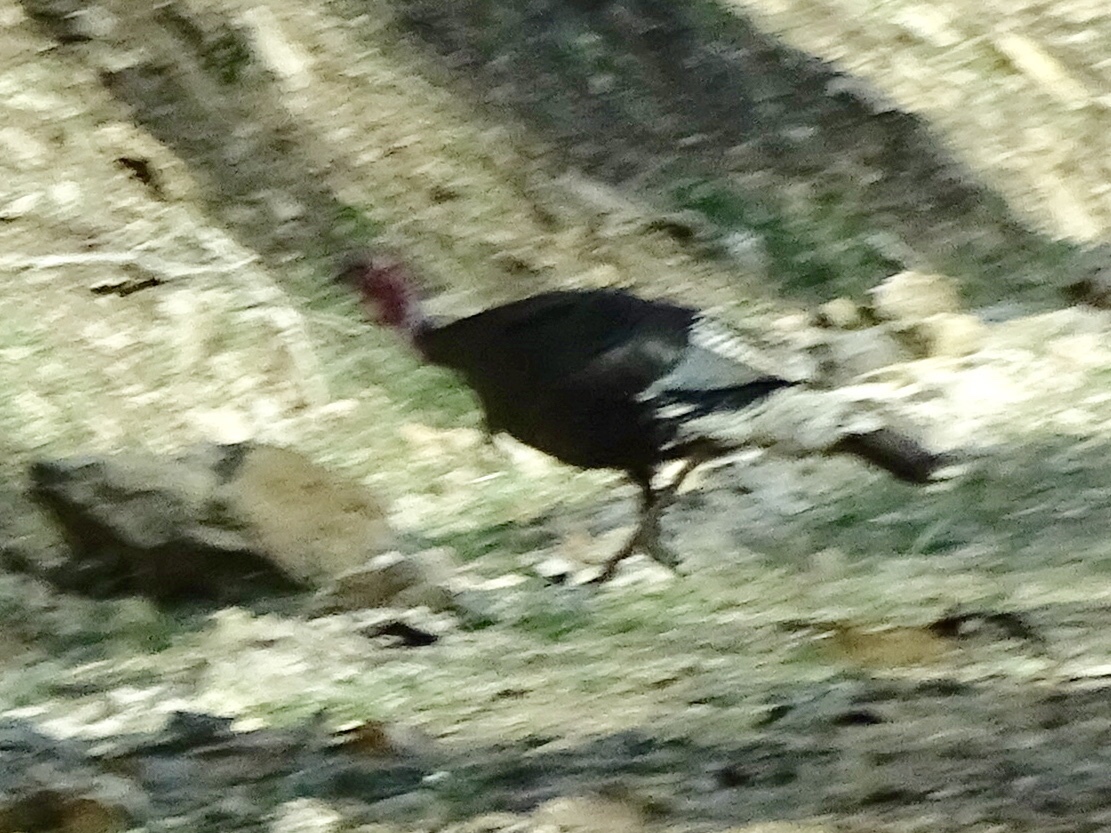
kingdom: Animalia
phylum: Chordata
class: Aves
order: Galliformes
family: Phasianidae
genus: Meleagris
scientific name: Meleagris gallopavo
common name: Wild turkey
